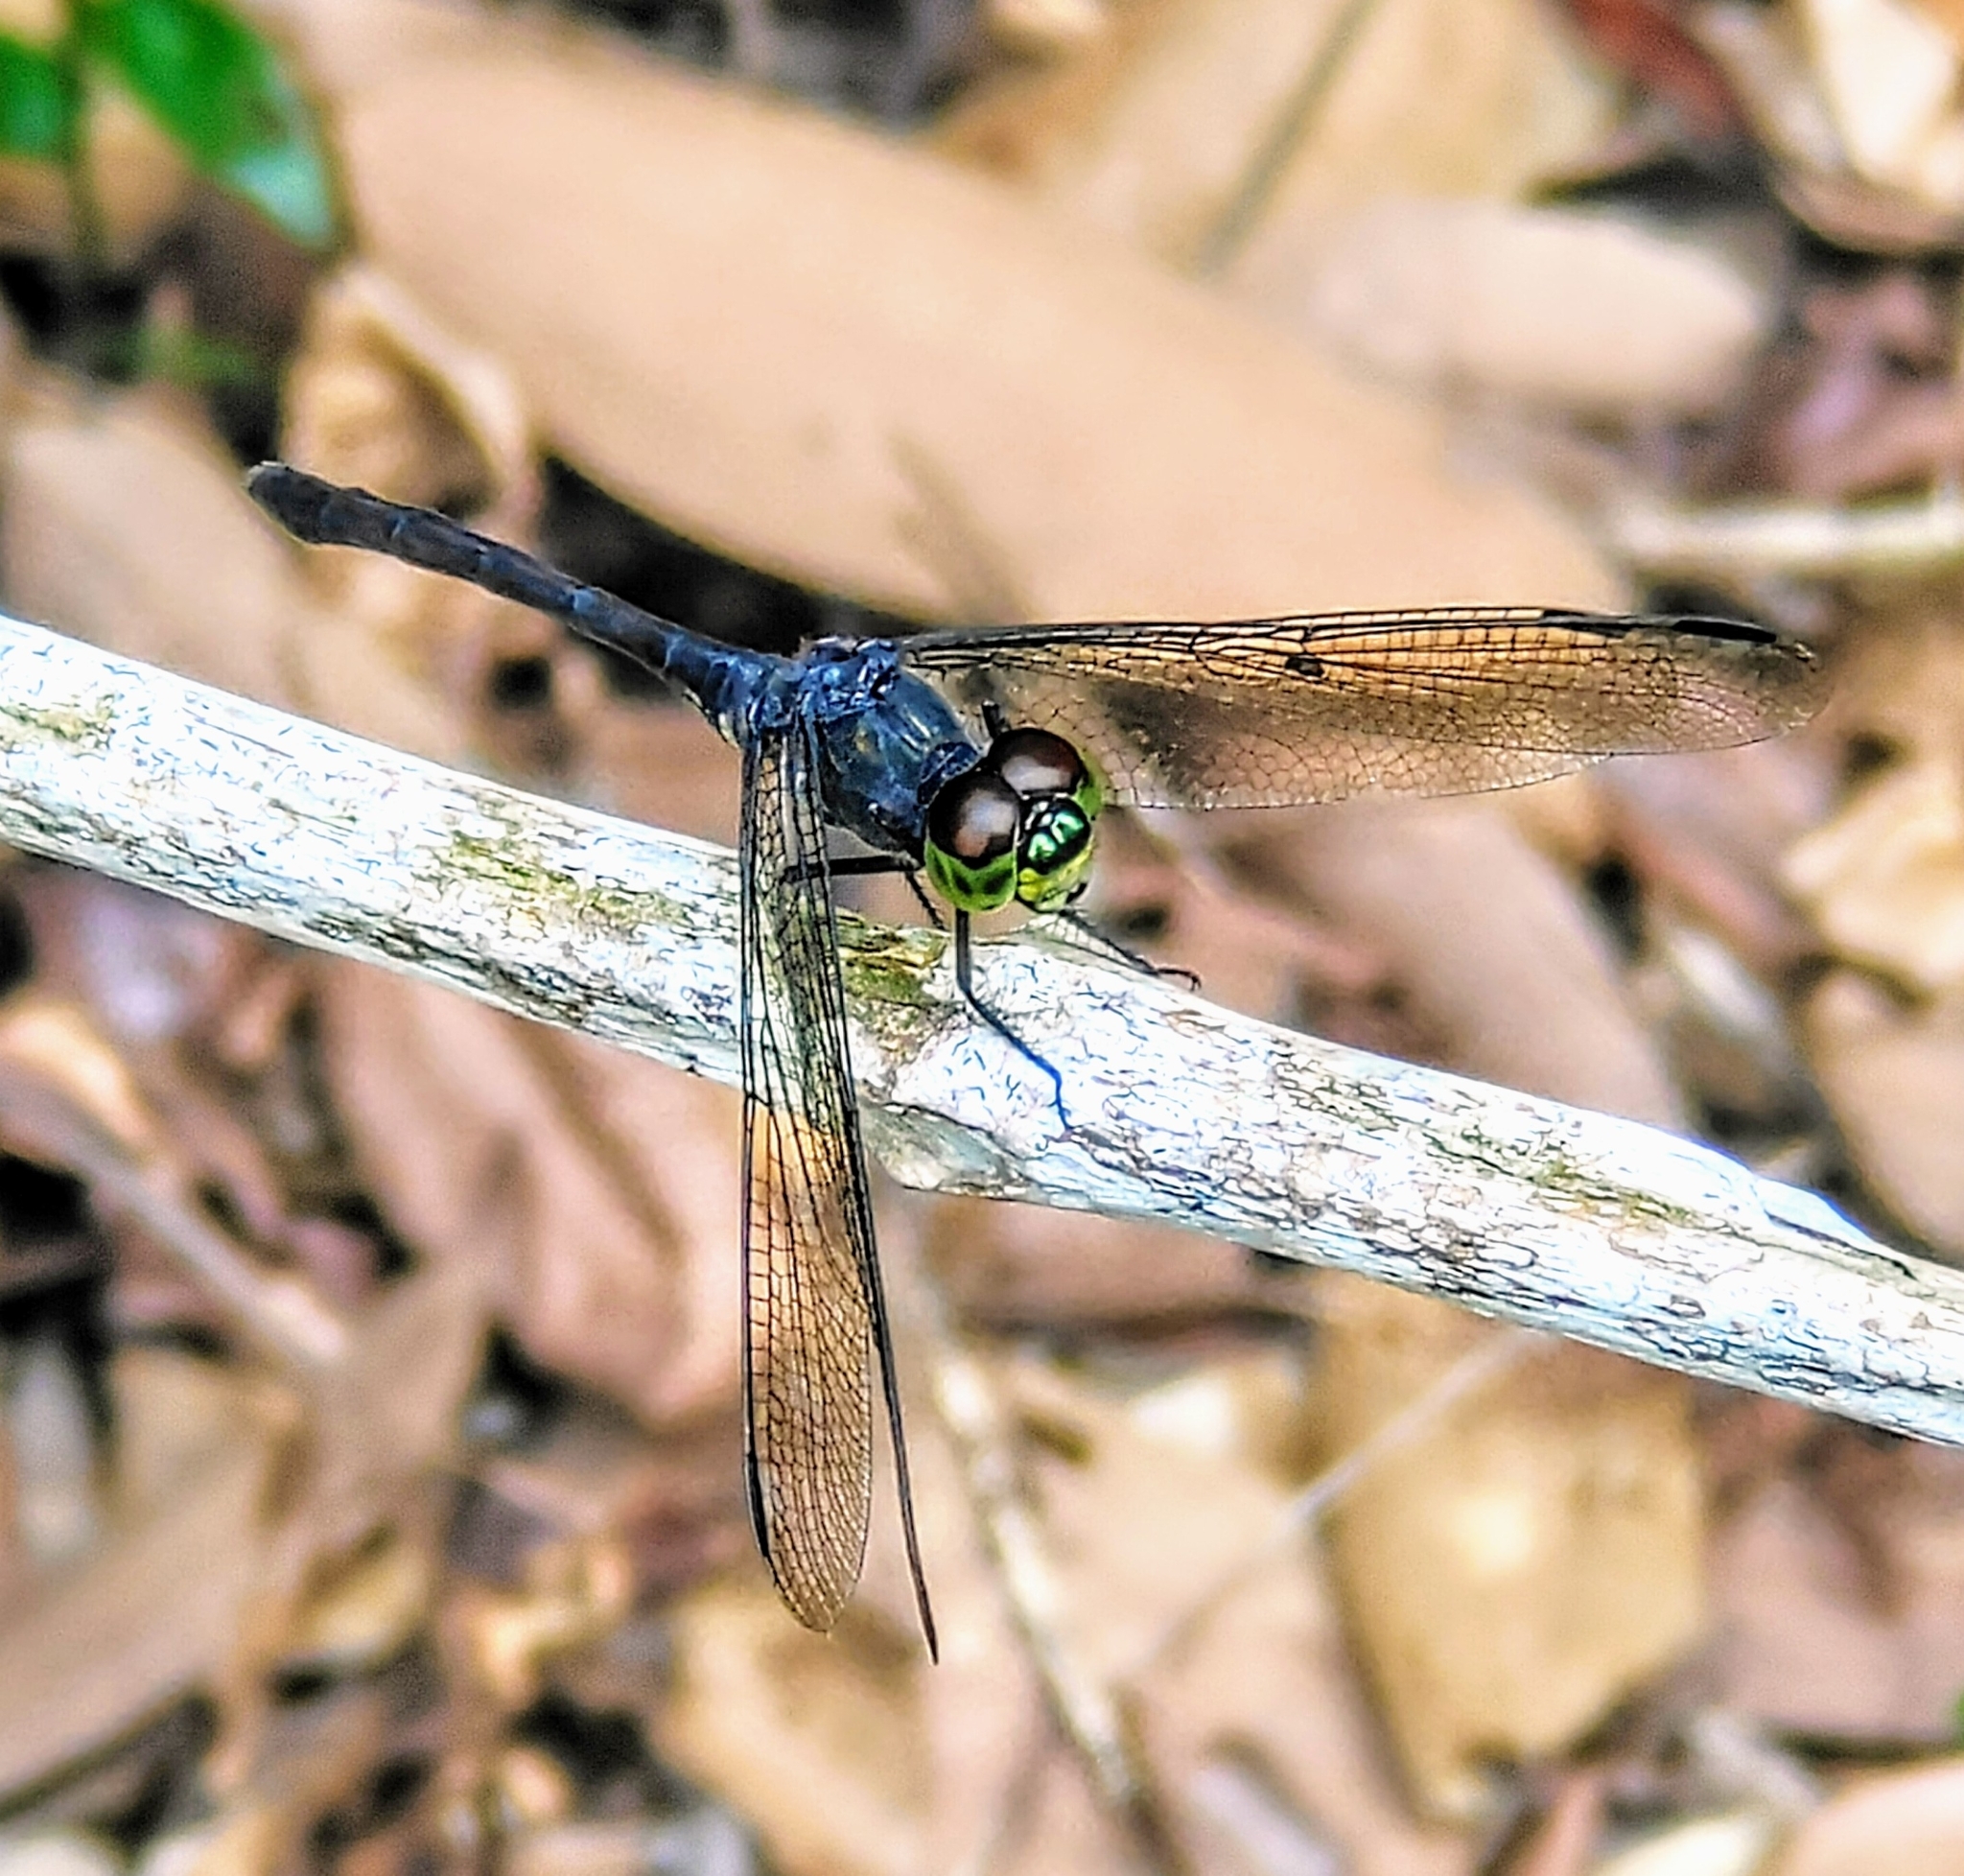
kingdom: Animalia
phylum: Arthropoda
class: Insecta
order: Odonata
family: Libellulidae
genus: Agrionoptera
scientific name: Agrionoptera insignis
